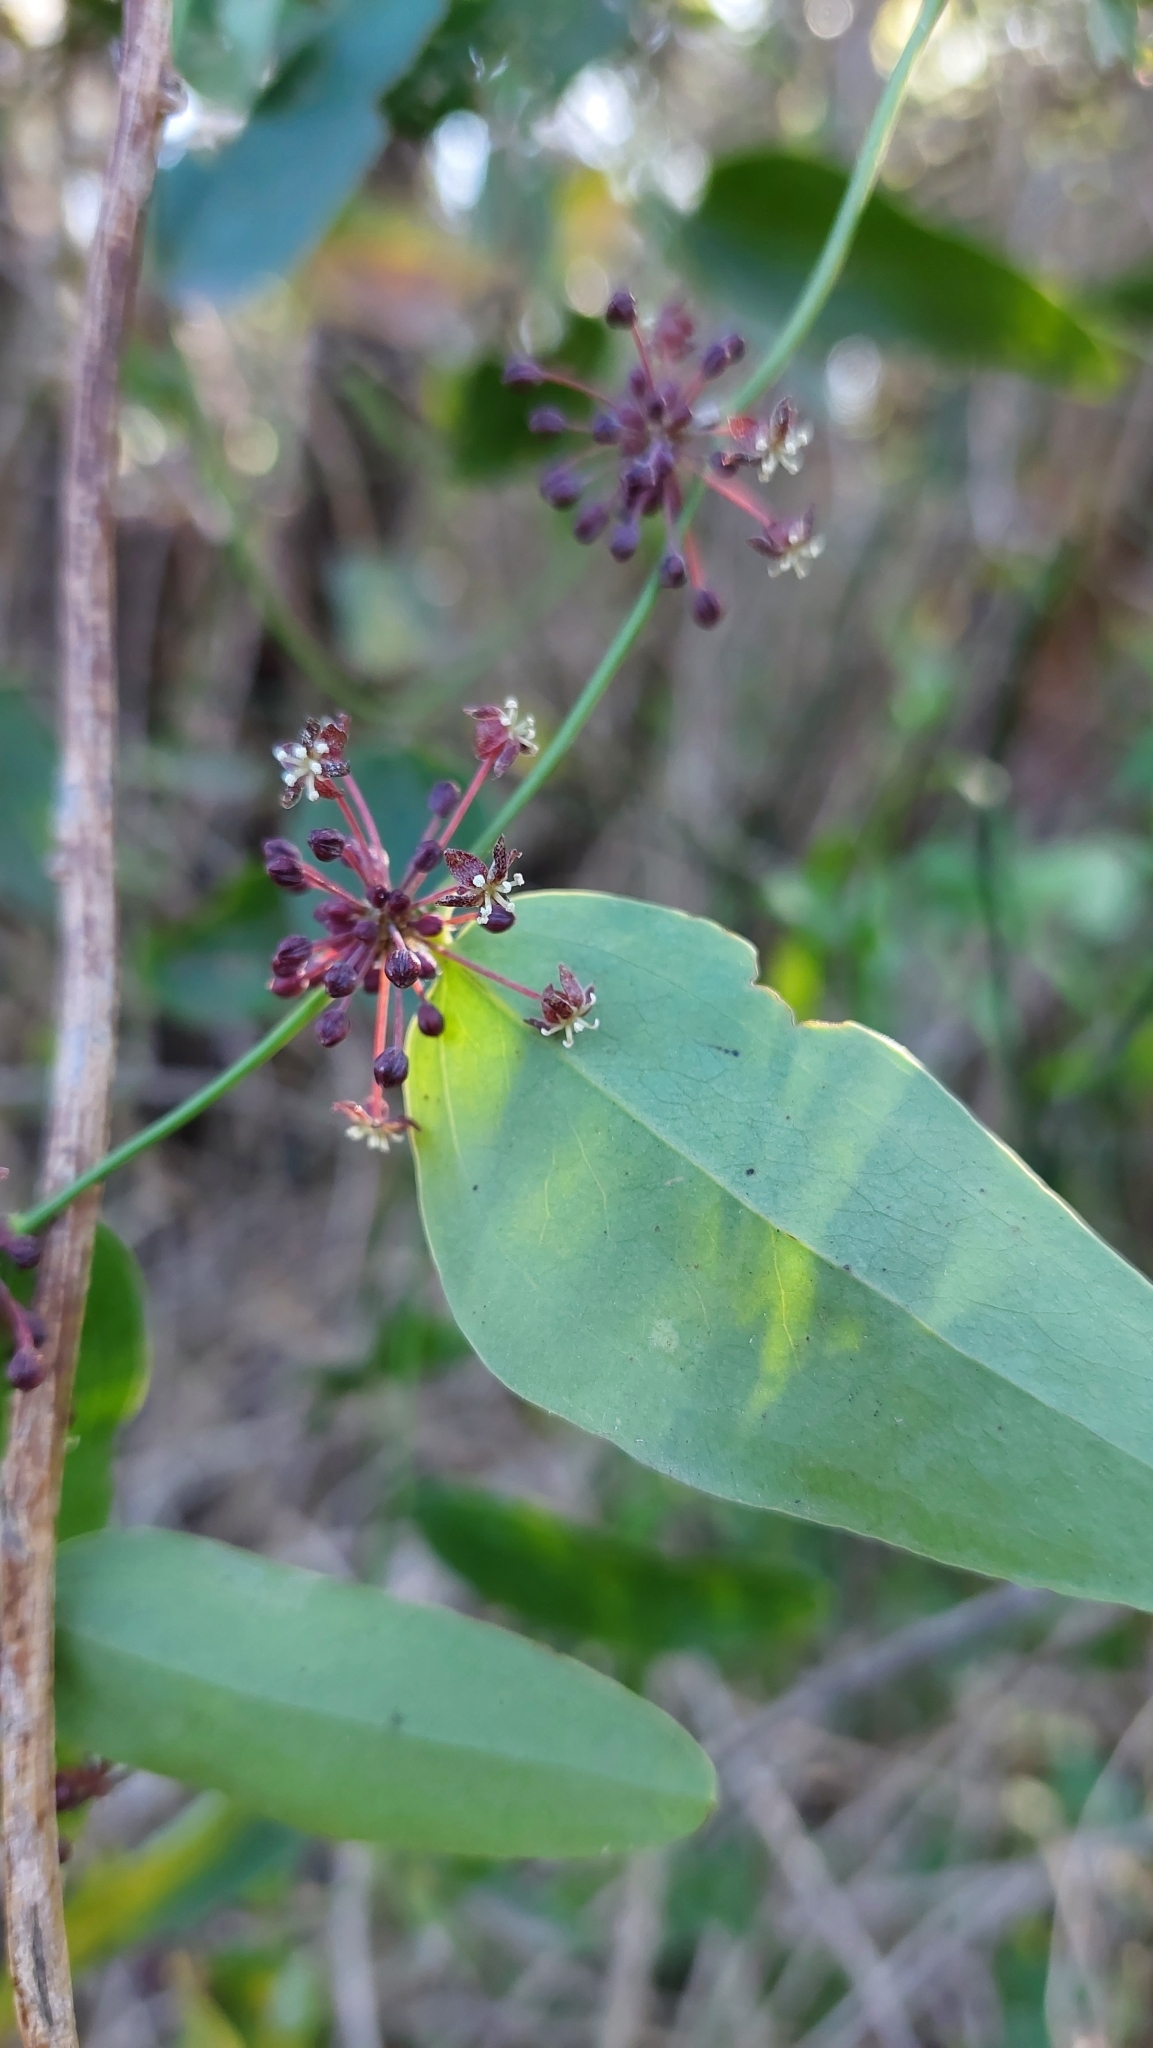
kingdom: Plantae
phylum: Tracheophyta
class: Liliopsida
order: Liliales
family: Smilacaceae
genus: Smilax
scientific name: Smilax campestris
